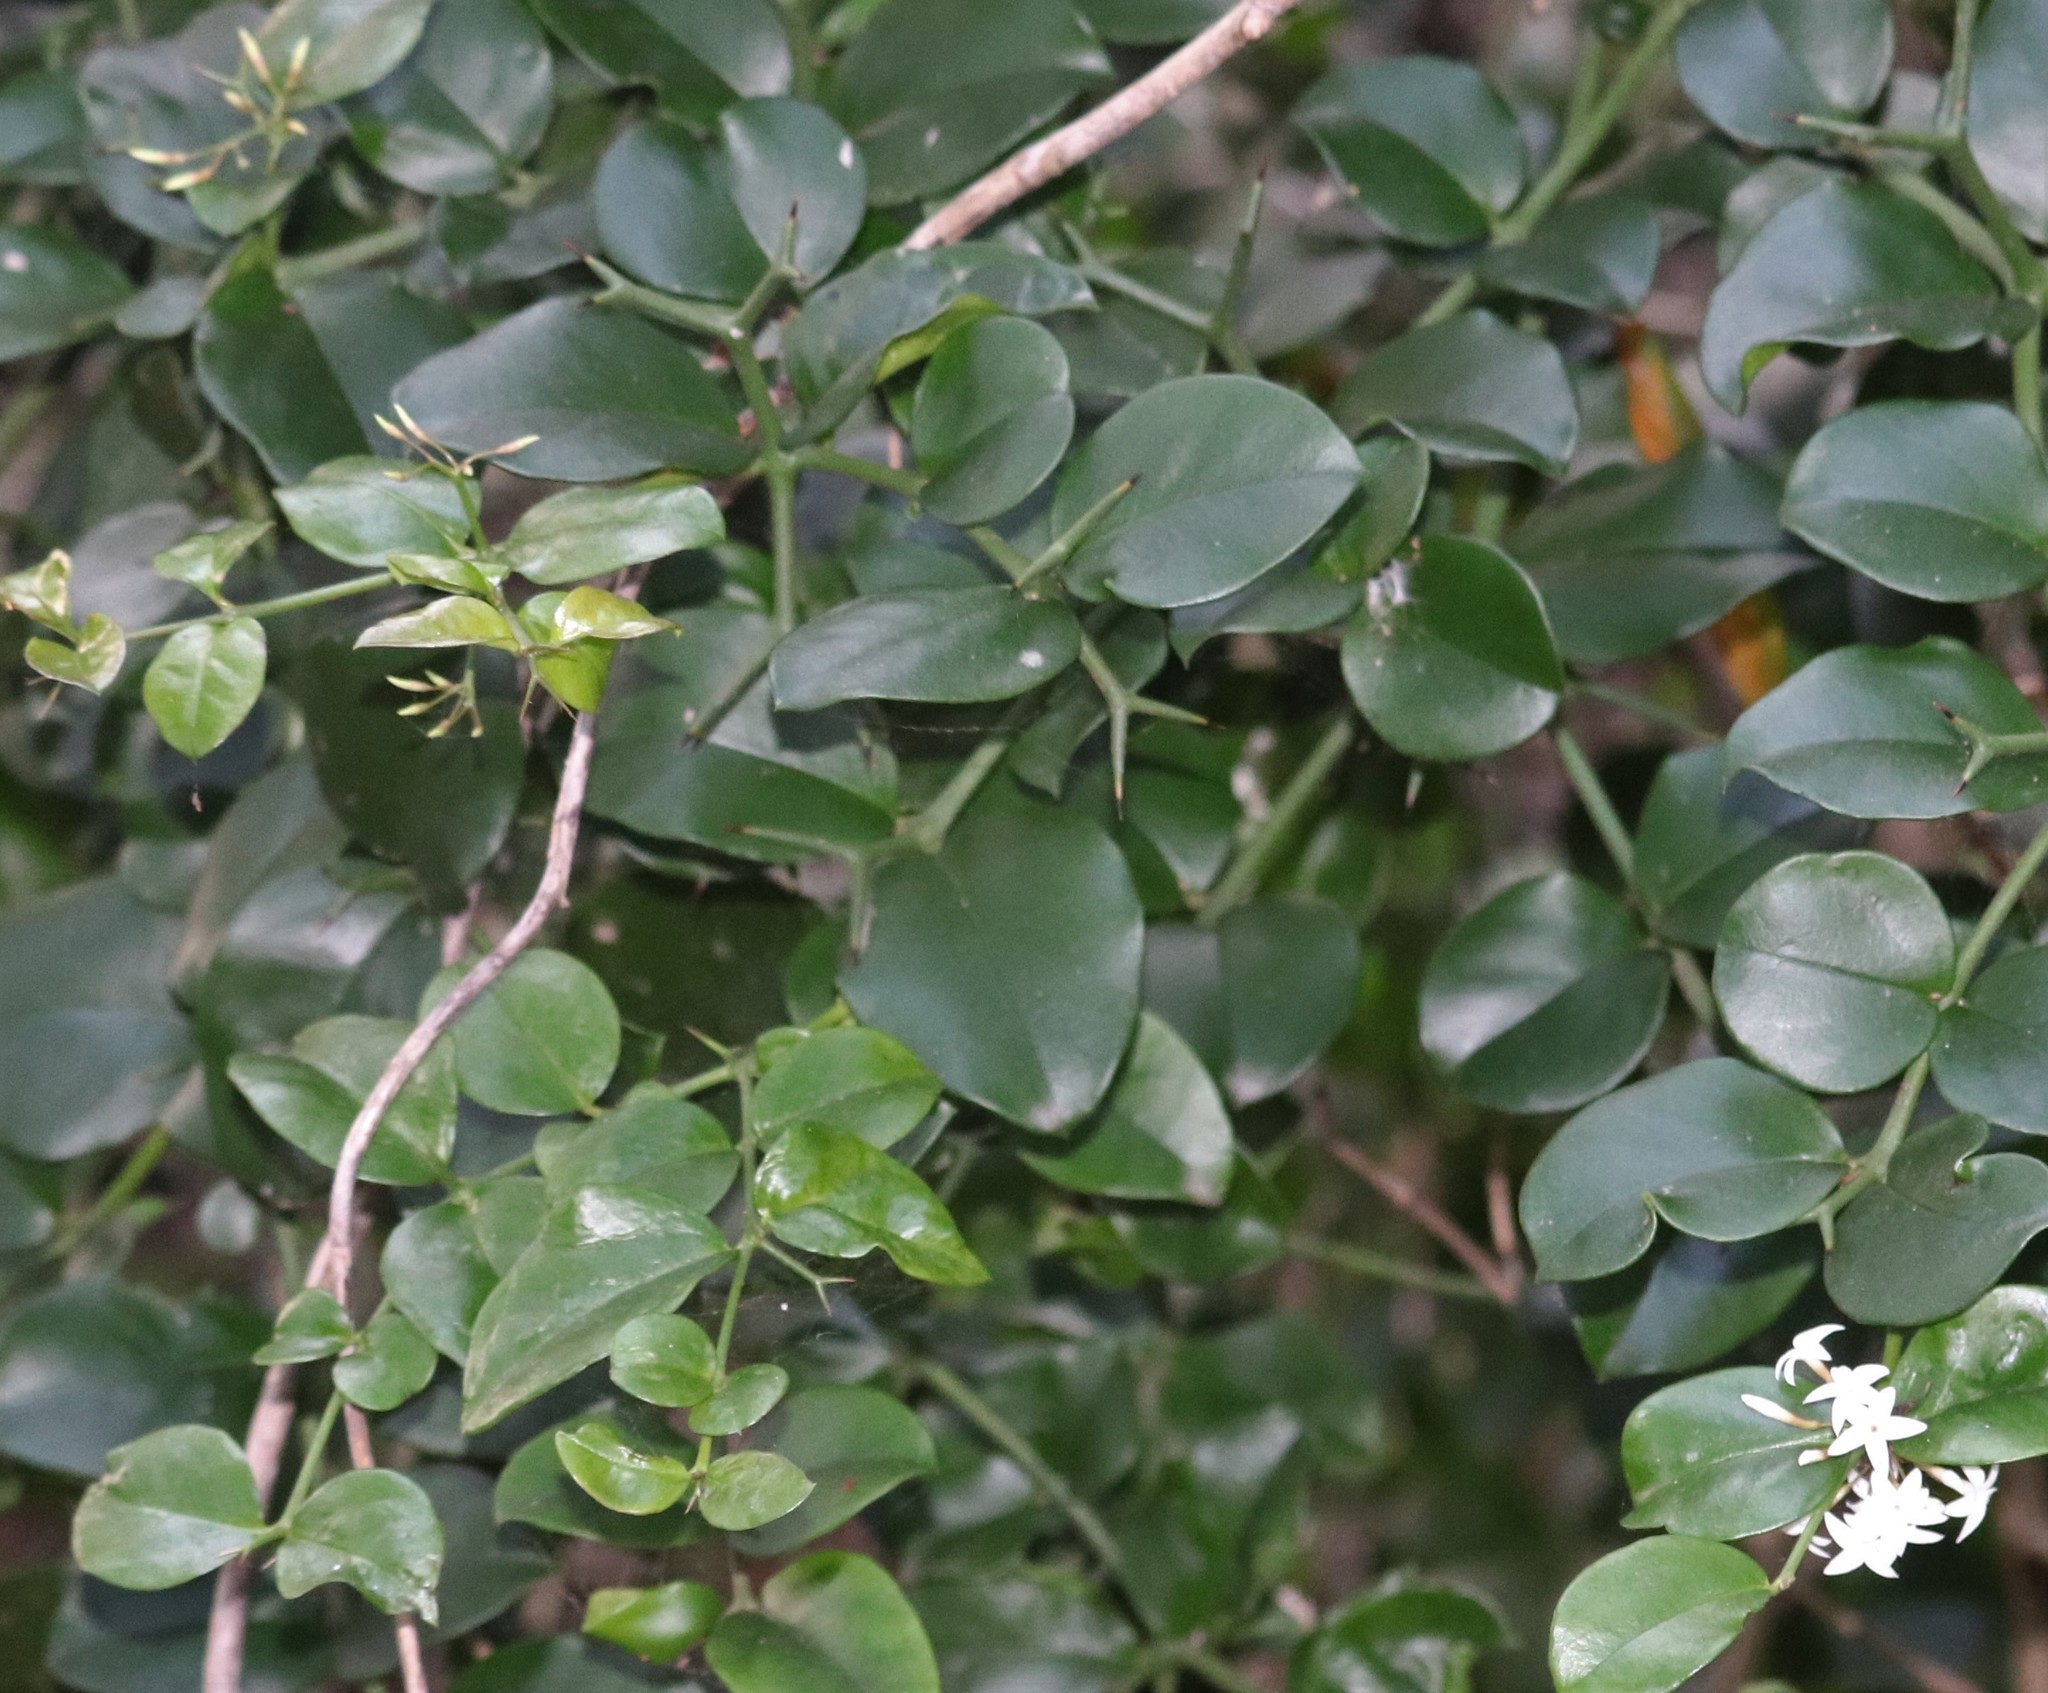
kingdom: Plantae
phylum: Tracheophyta
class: Magnoliopsida
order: Gentianales
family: Apocynaceae
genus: Carissa
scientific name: Carissa bispinosa
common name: Forest num-num
